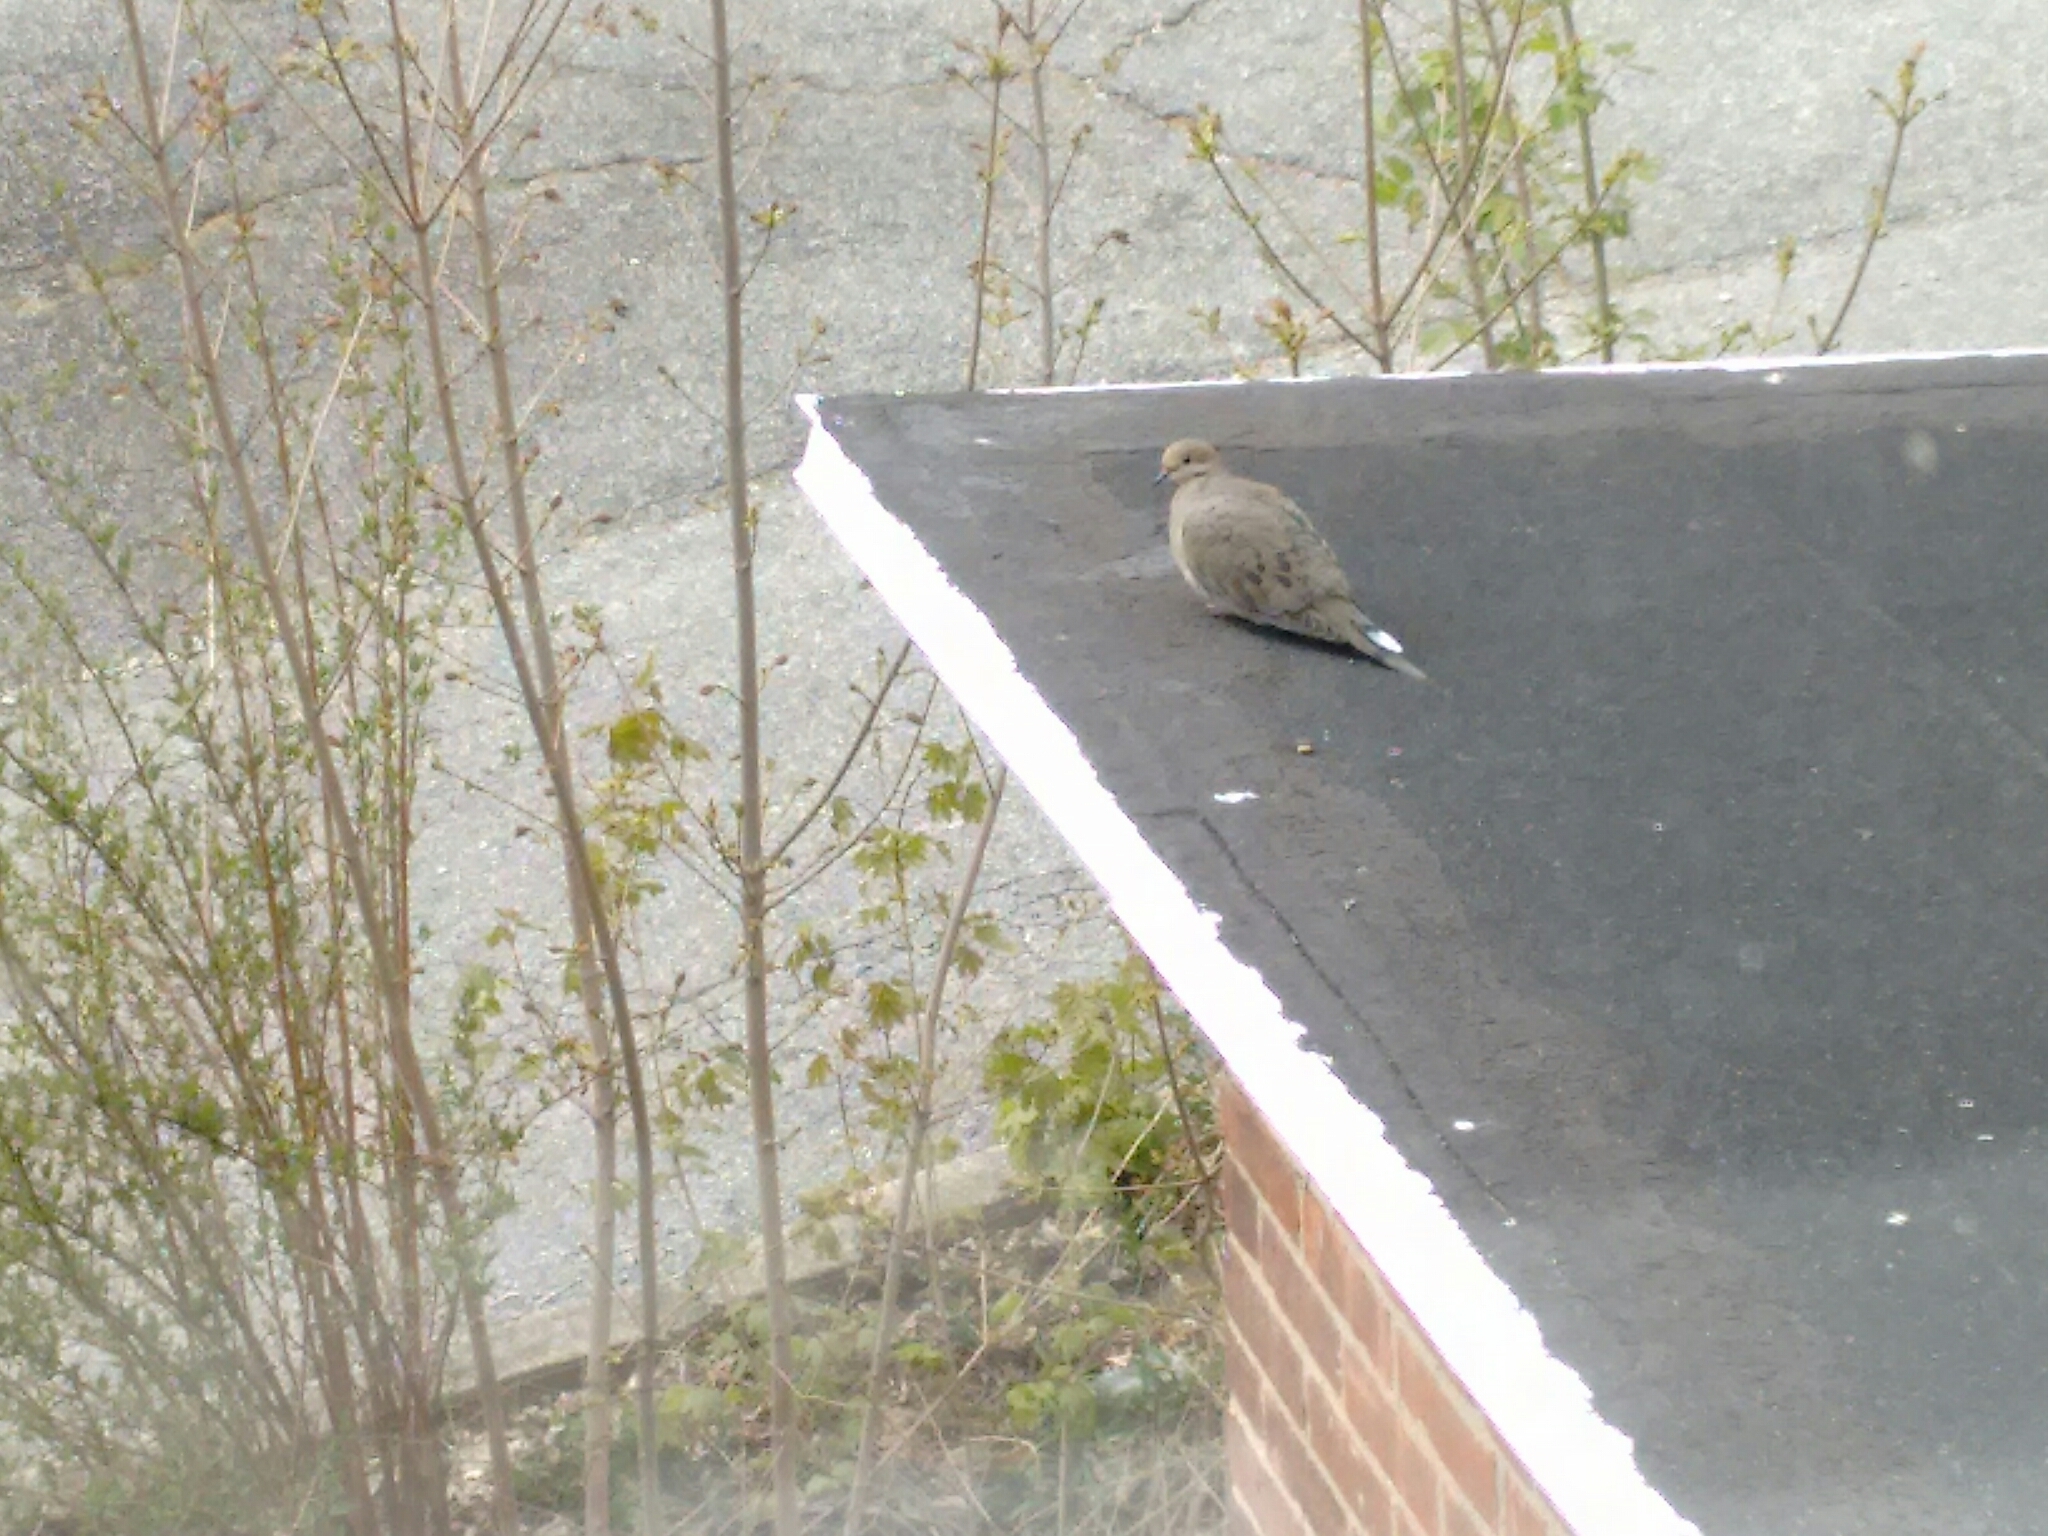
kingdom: Animalia
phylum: Chordata
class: Aves
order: Columbiformes
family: Columbidae
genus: Zenaida
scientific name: Zenaida macroura
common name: Mourning dove
